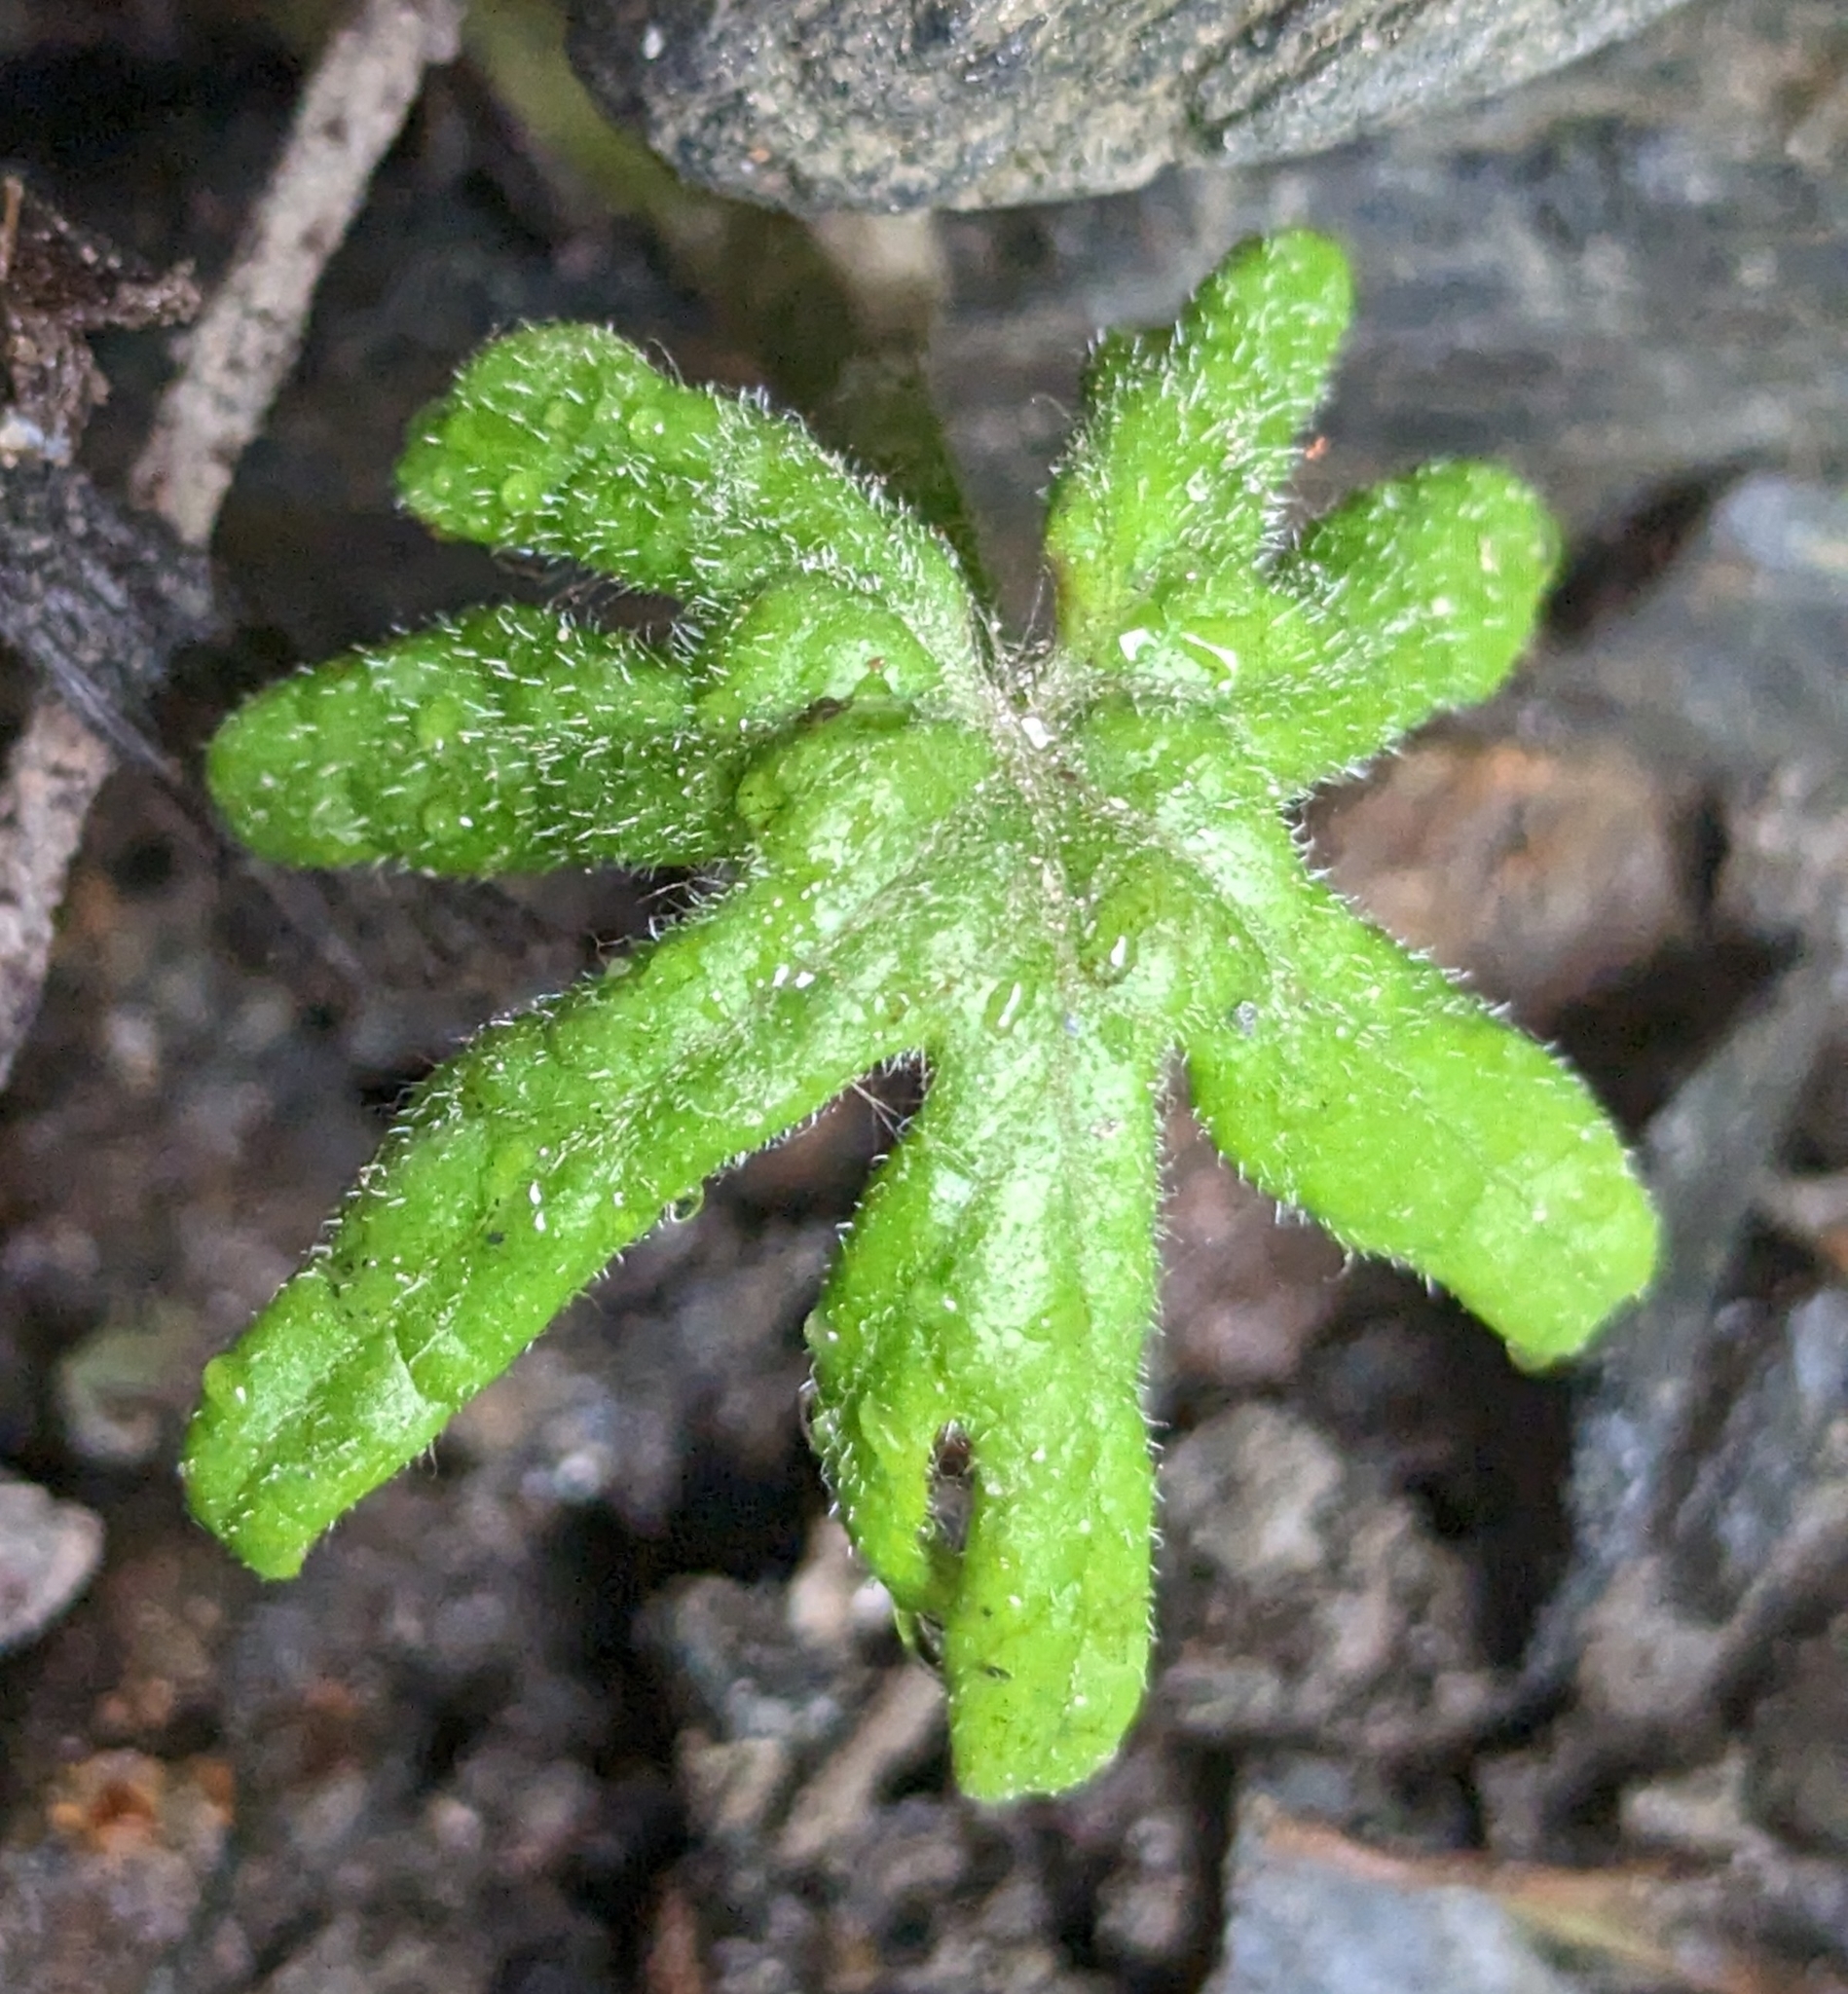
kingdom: Plantae
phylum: Tracheophyta
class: Magnoliopsida
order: Asterales
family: Asteraceae
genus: Petasites
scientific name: Petasites frigidus
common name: Arctic butterbur
